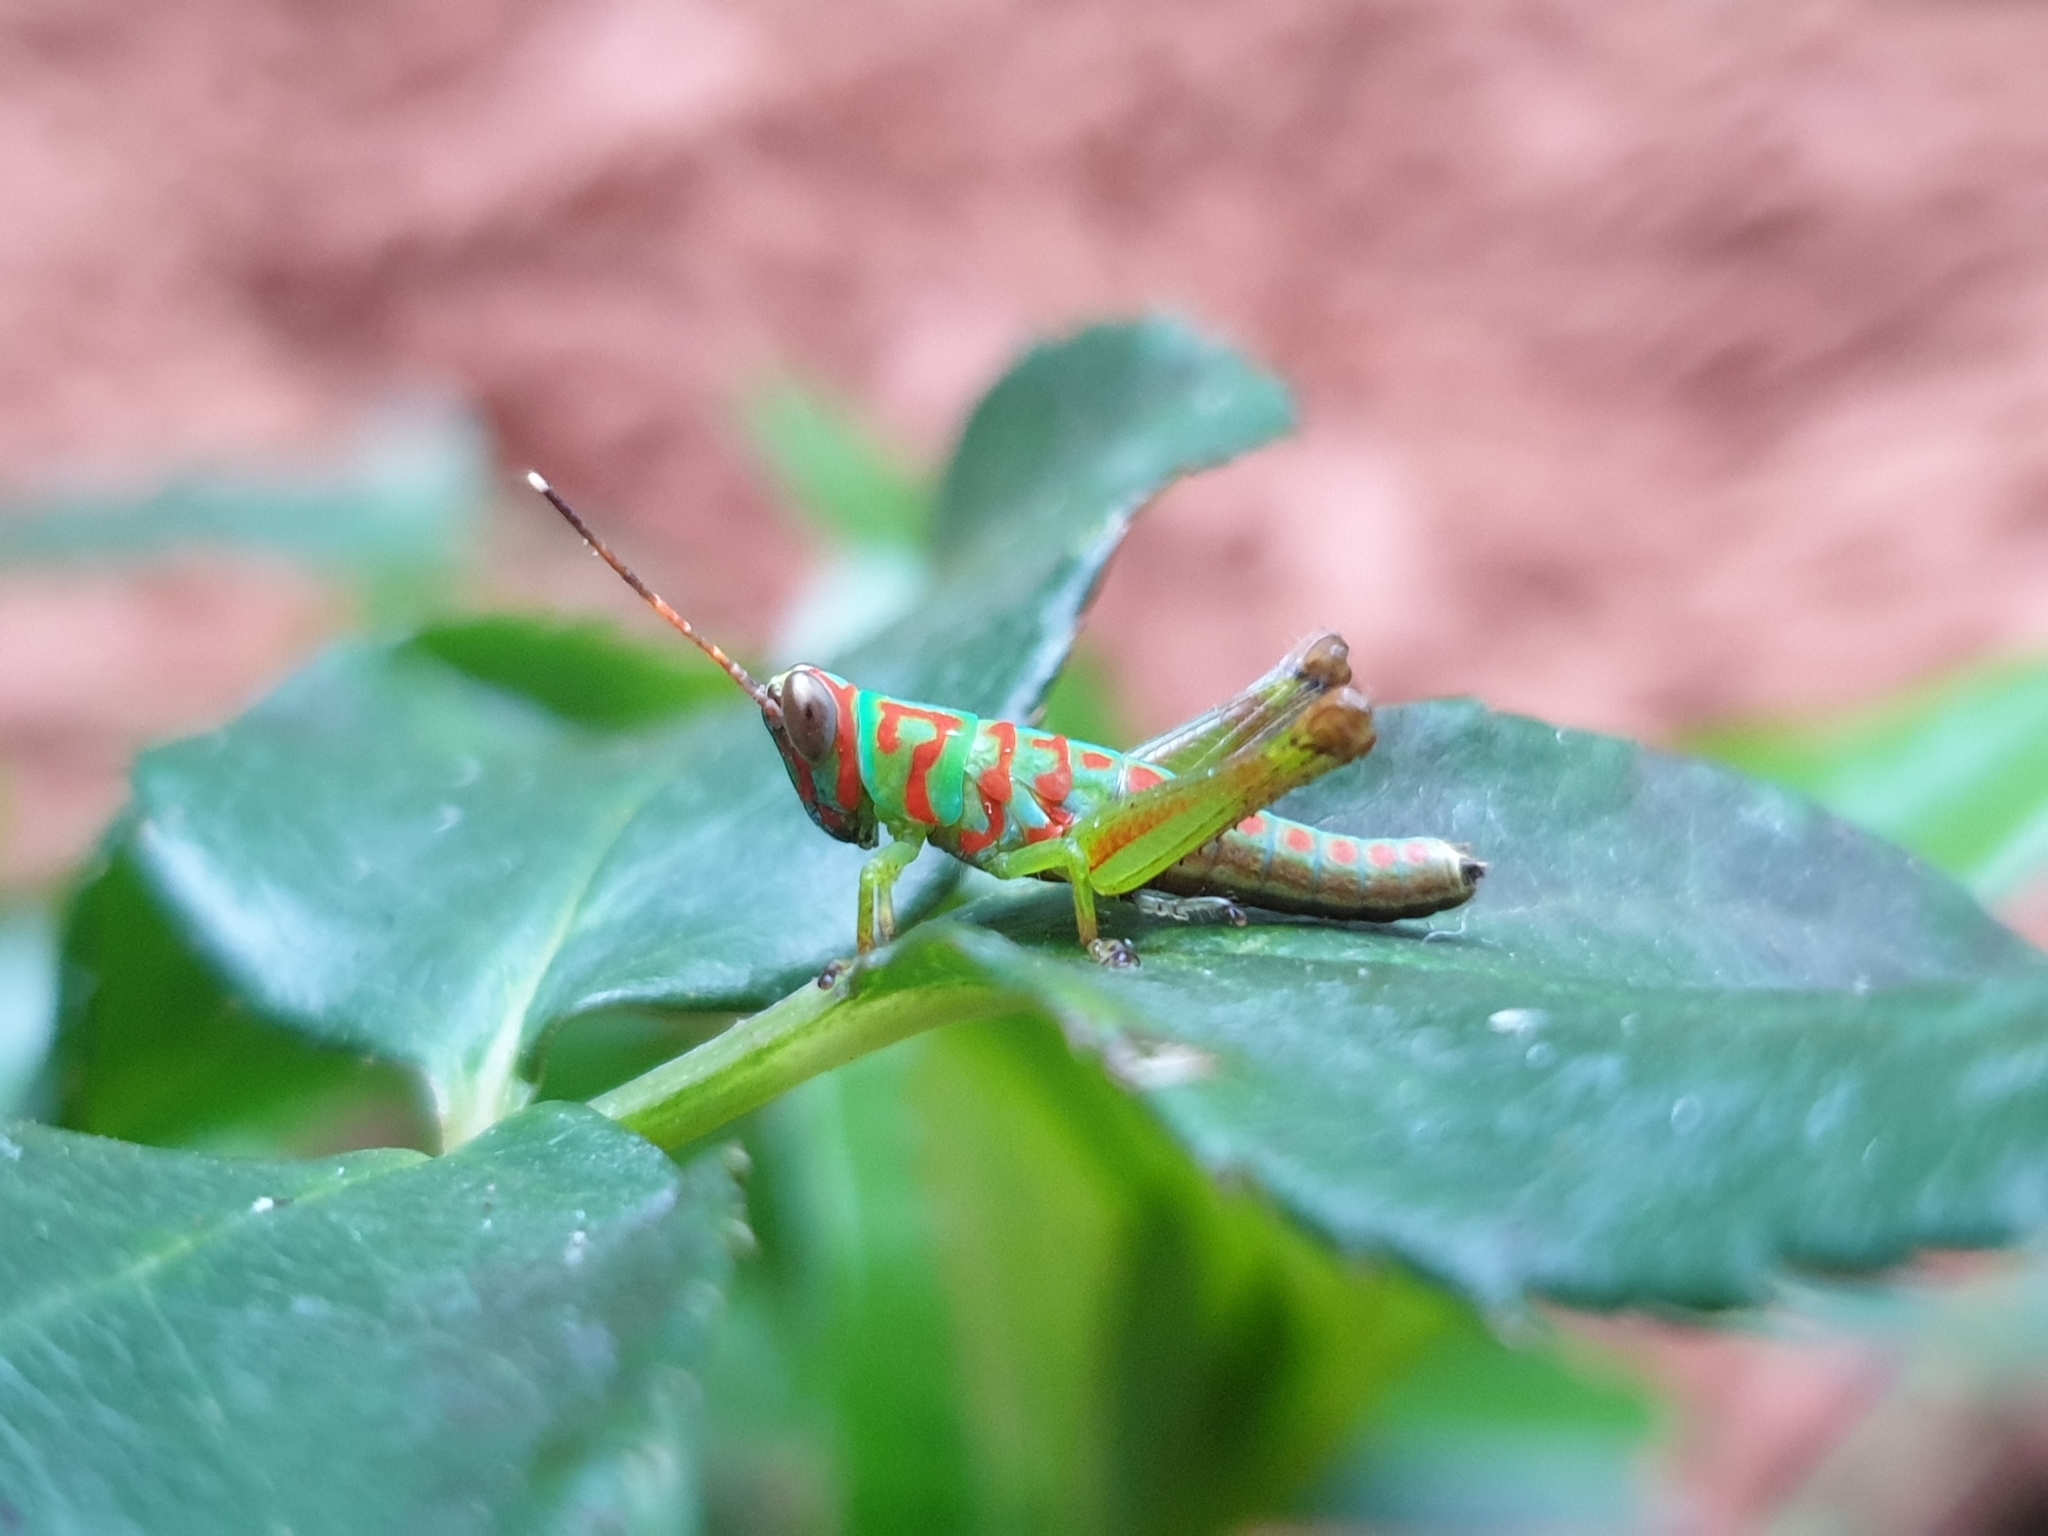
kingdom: Animalia
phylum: Arthropoda
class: Insecta
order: Orthoptera
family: Acrididae
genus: Pirithoicus
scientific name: Pirithoicus ophthalmicus
